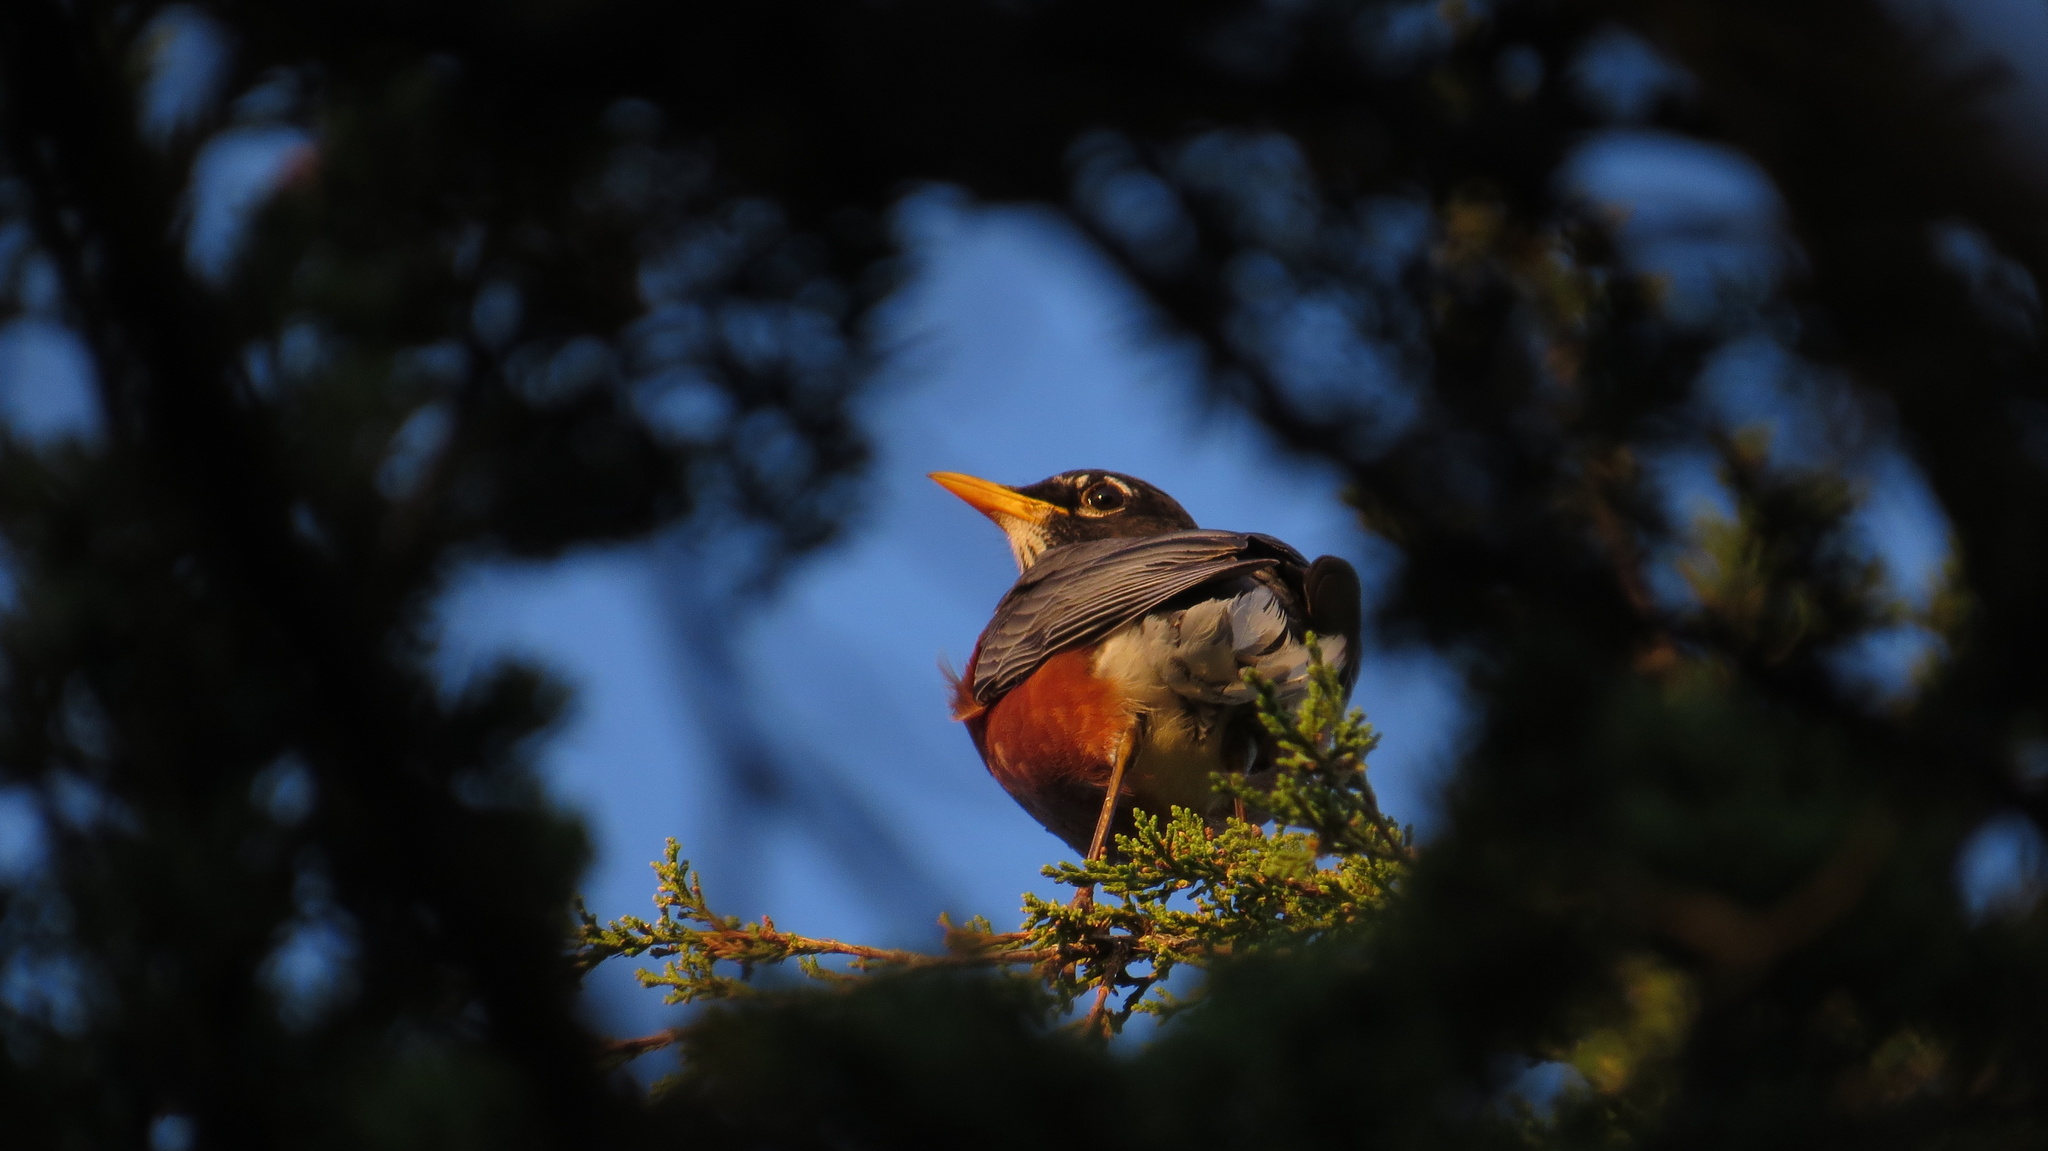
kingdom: Animalia
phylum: Chordata
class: Aves
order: Passeriformes
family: Turdidae
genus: Turdus
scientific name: Turdus migratorius
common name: American robin
